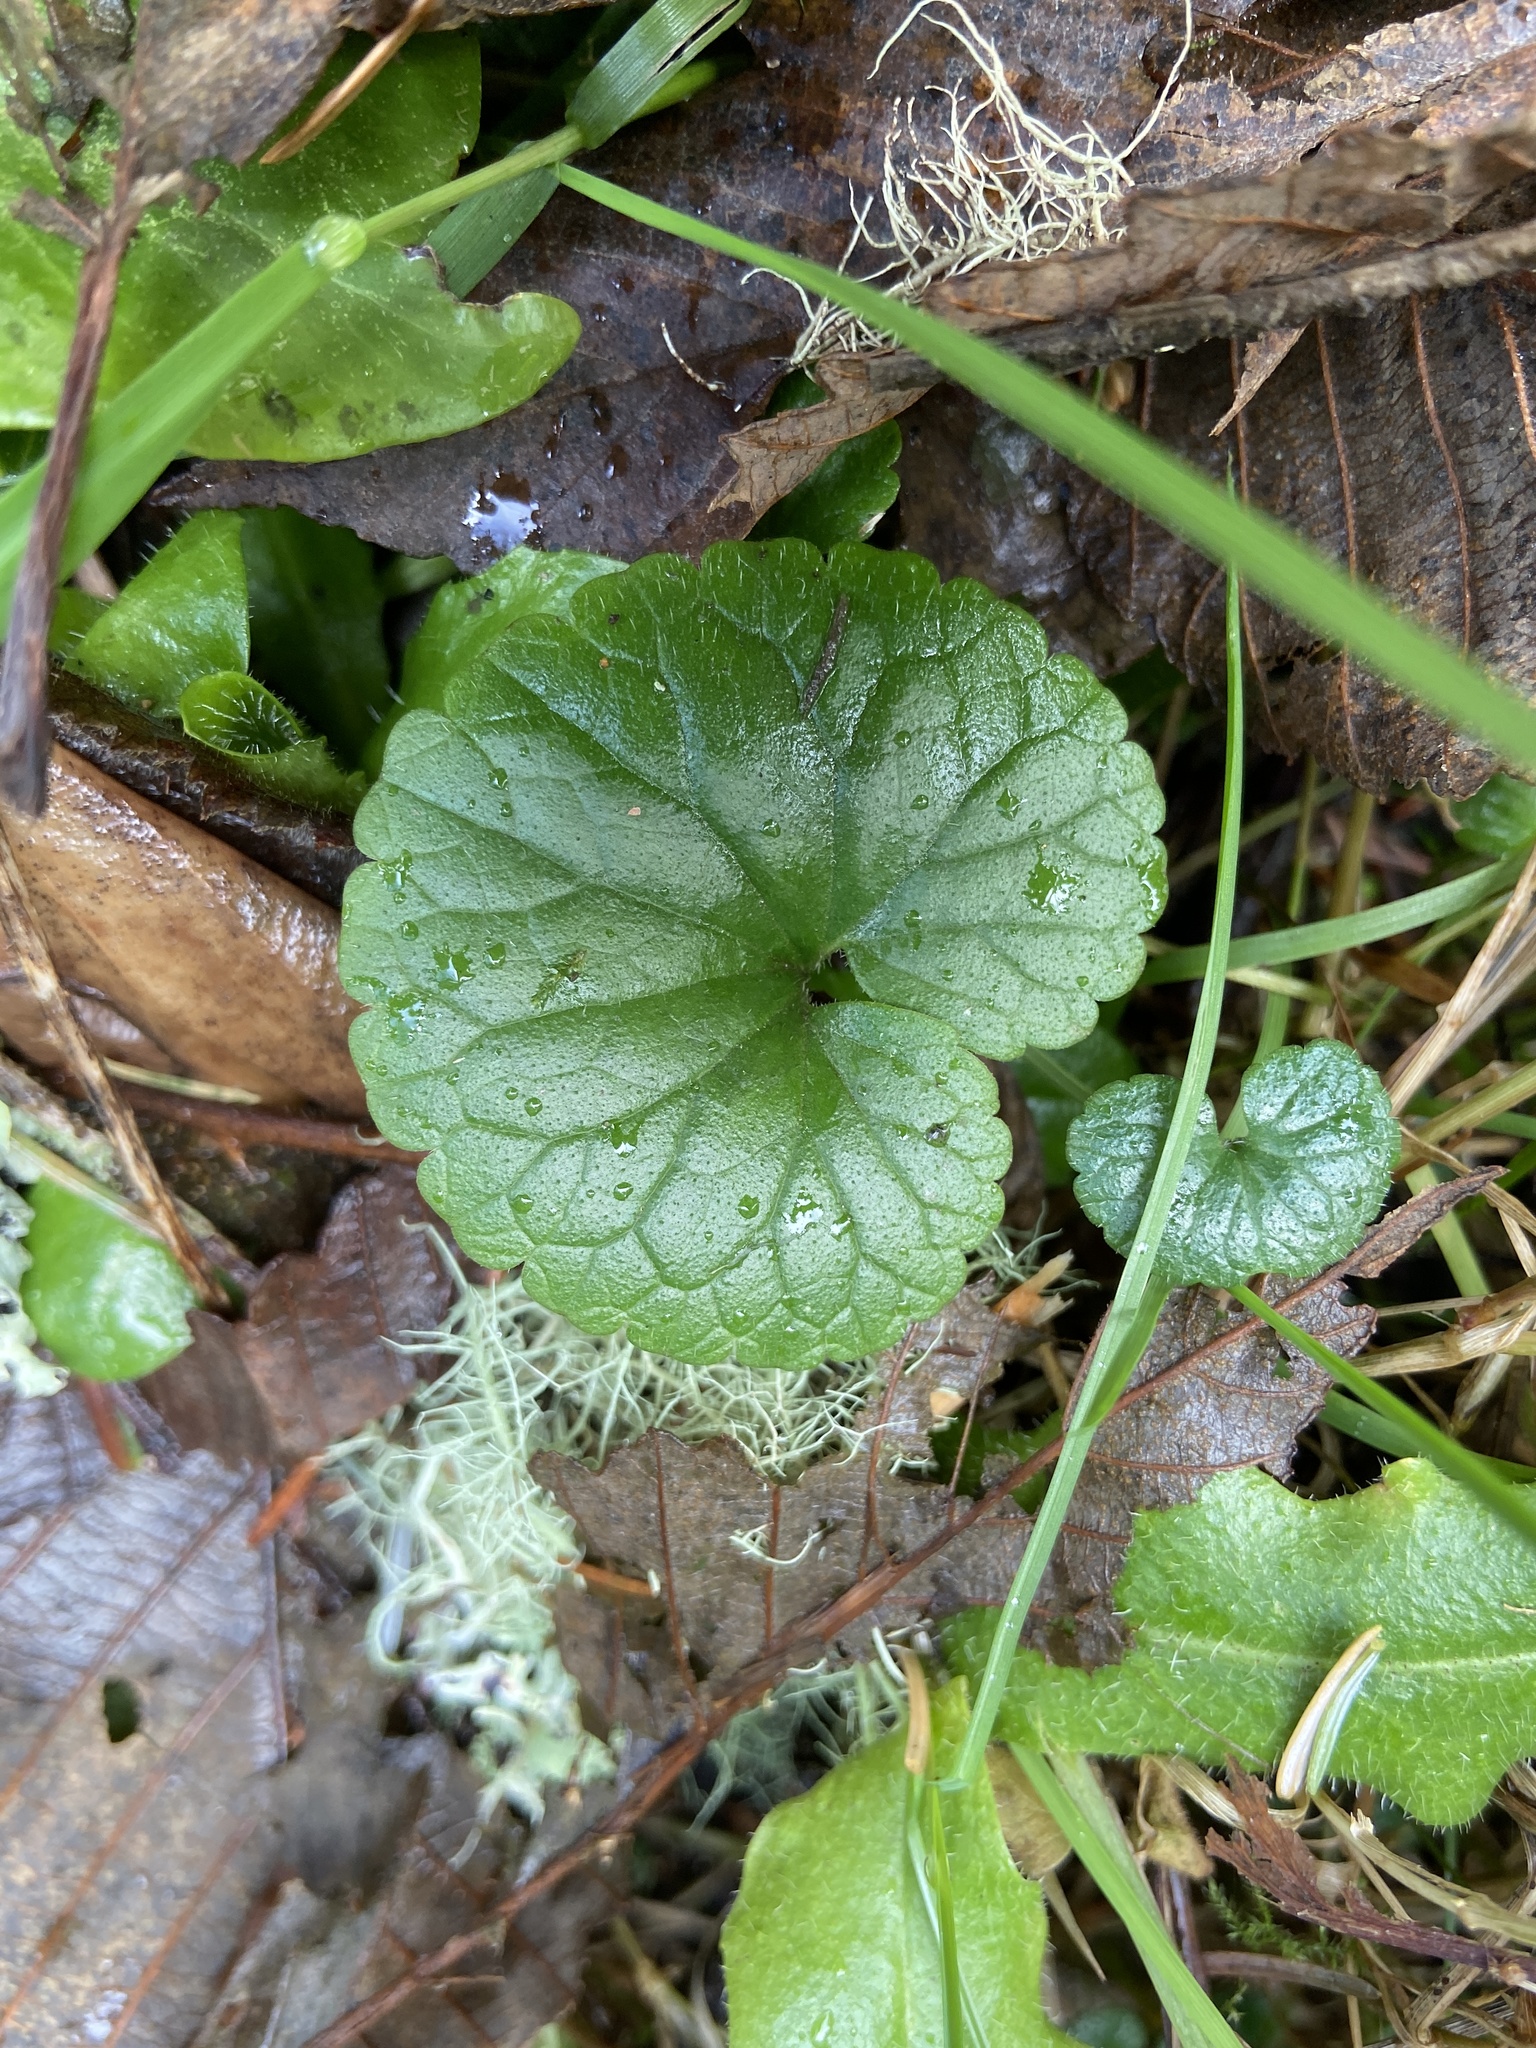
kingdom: Plantae
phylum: Tracheophyta
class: Magnoliopsida
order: Lamiales
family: Lamiaceae
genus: Glechoma
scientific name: Glechoma hederacea
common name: Ground ivy
